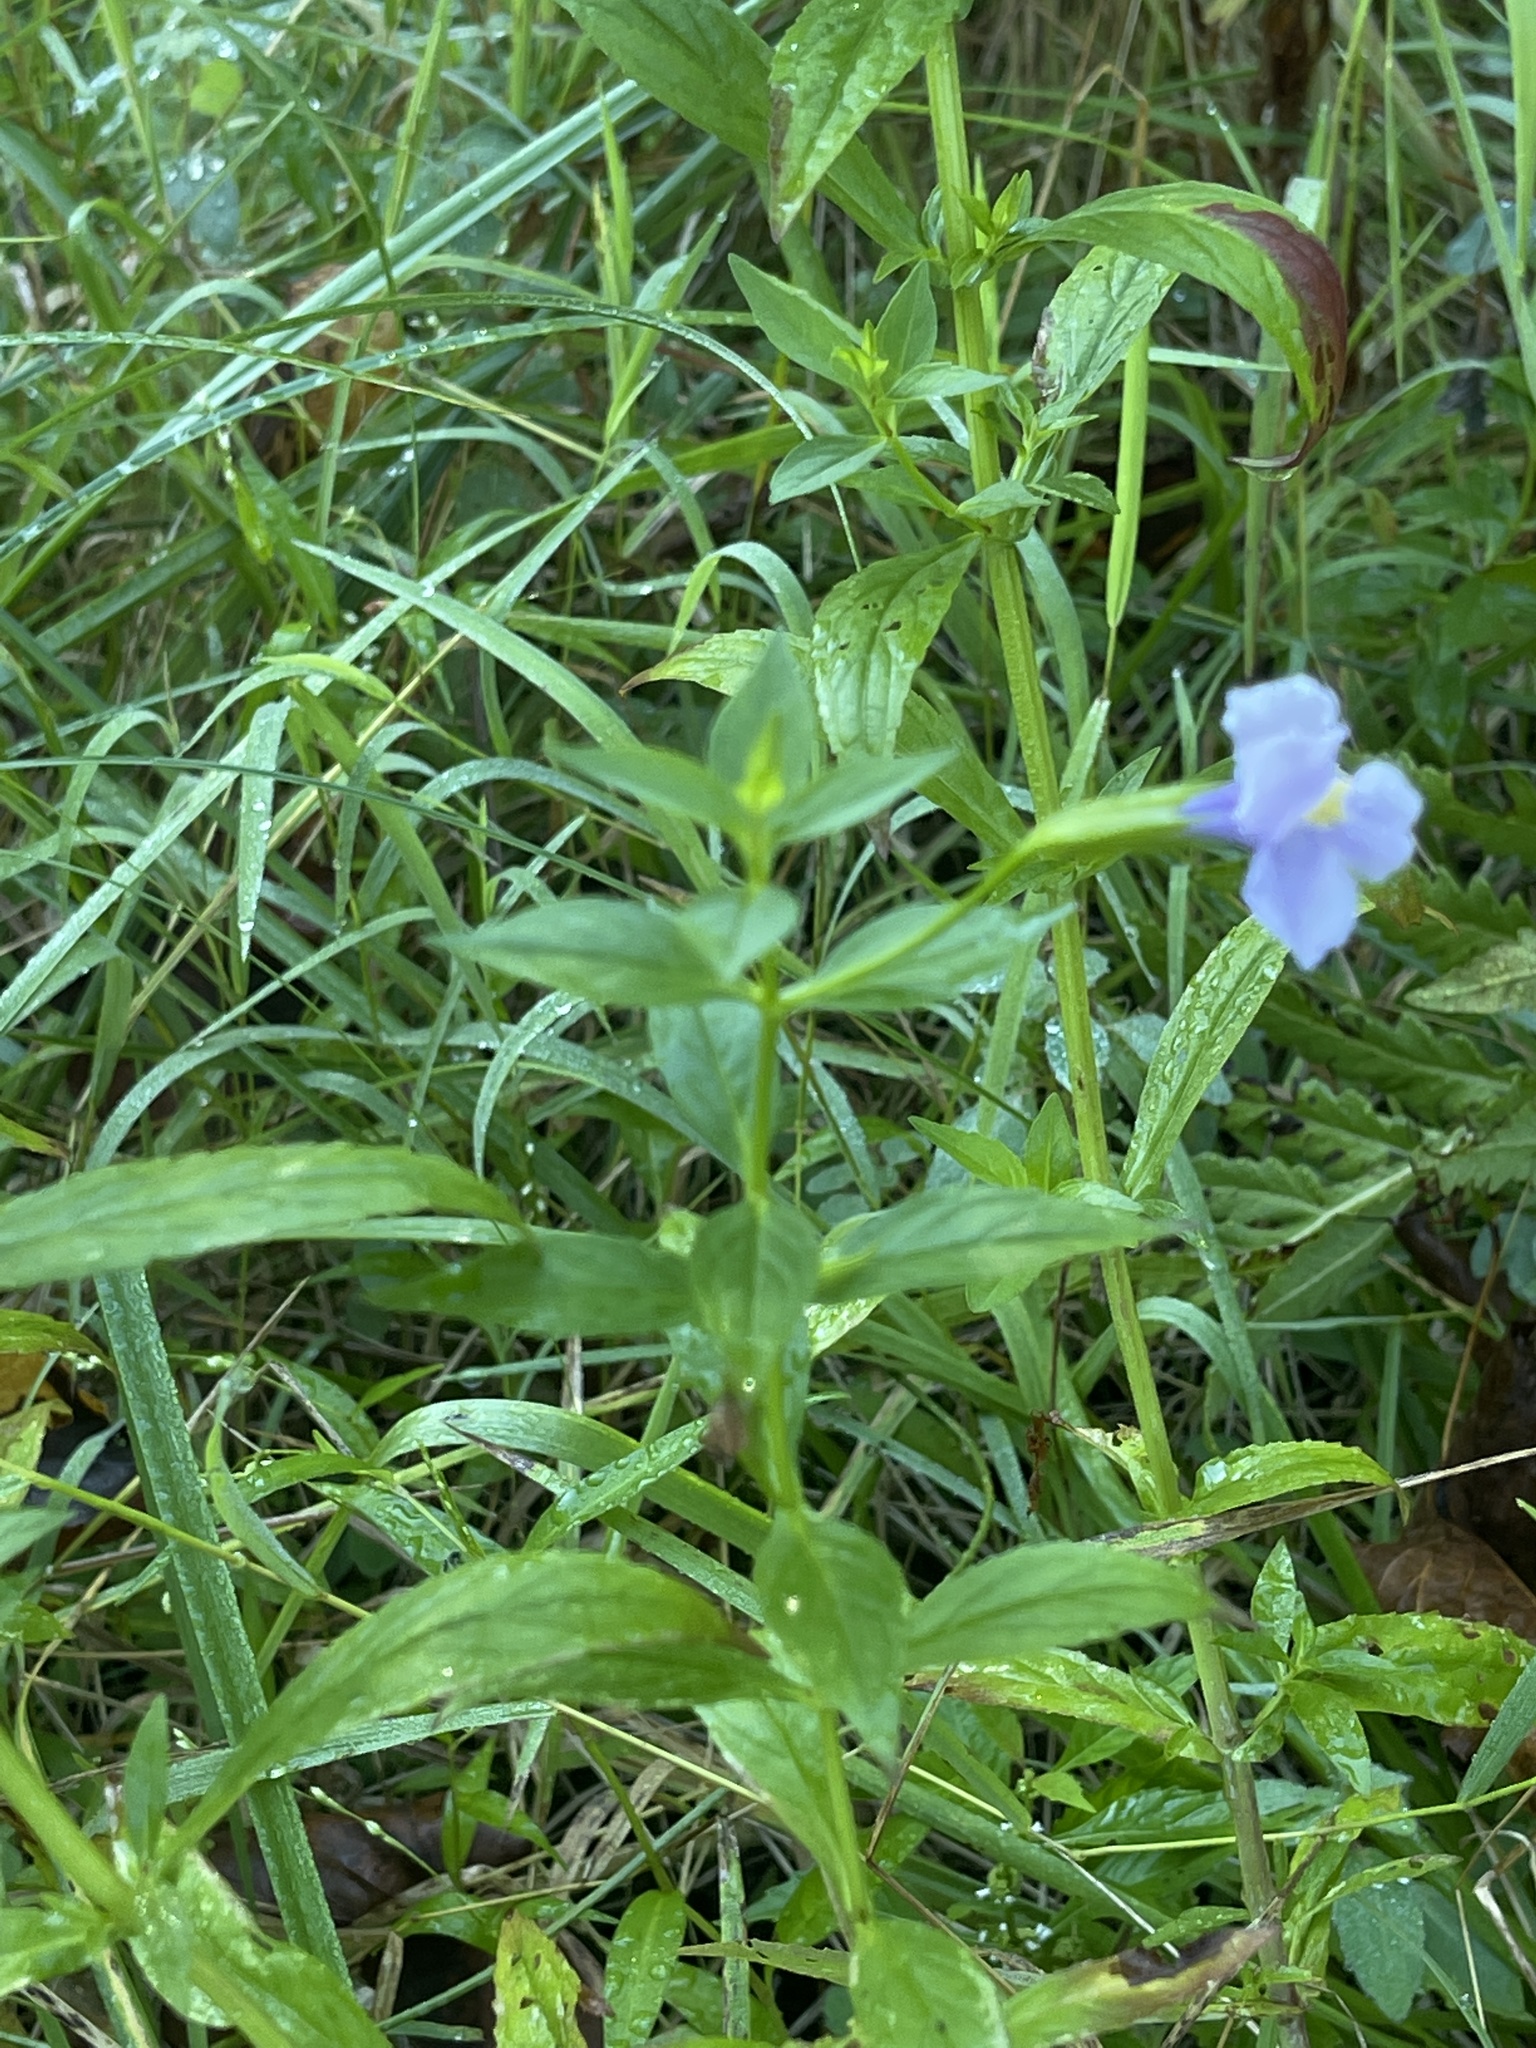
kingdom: Plantae
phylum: Tracheophyta
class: Magnoliopsida
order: Lamiales
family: Phrymaceae
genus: Mimulus
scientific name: Mimulus ringens
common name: Allegheny monkeyflower
